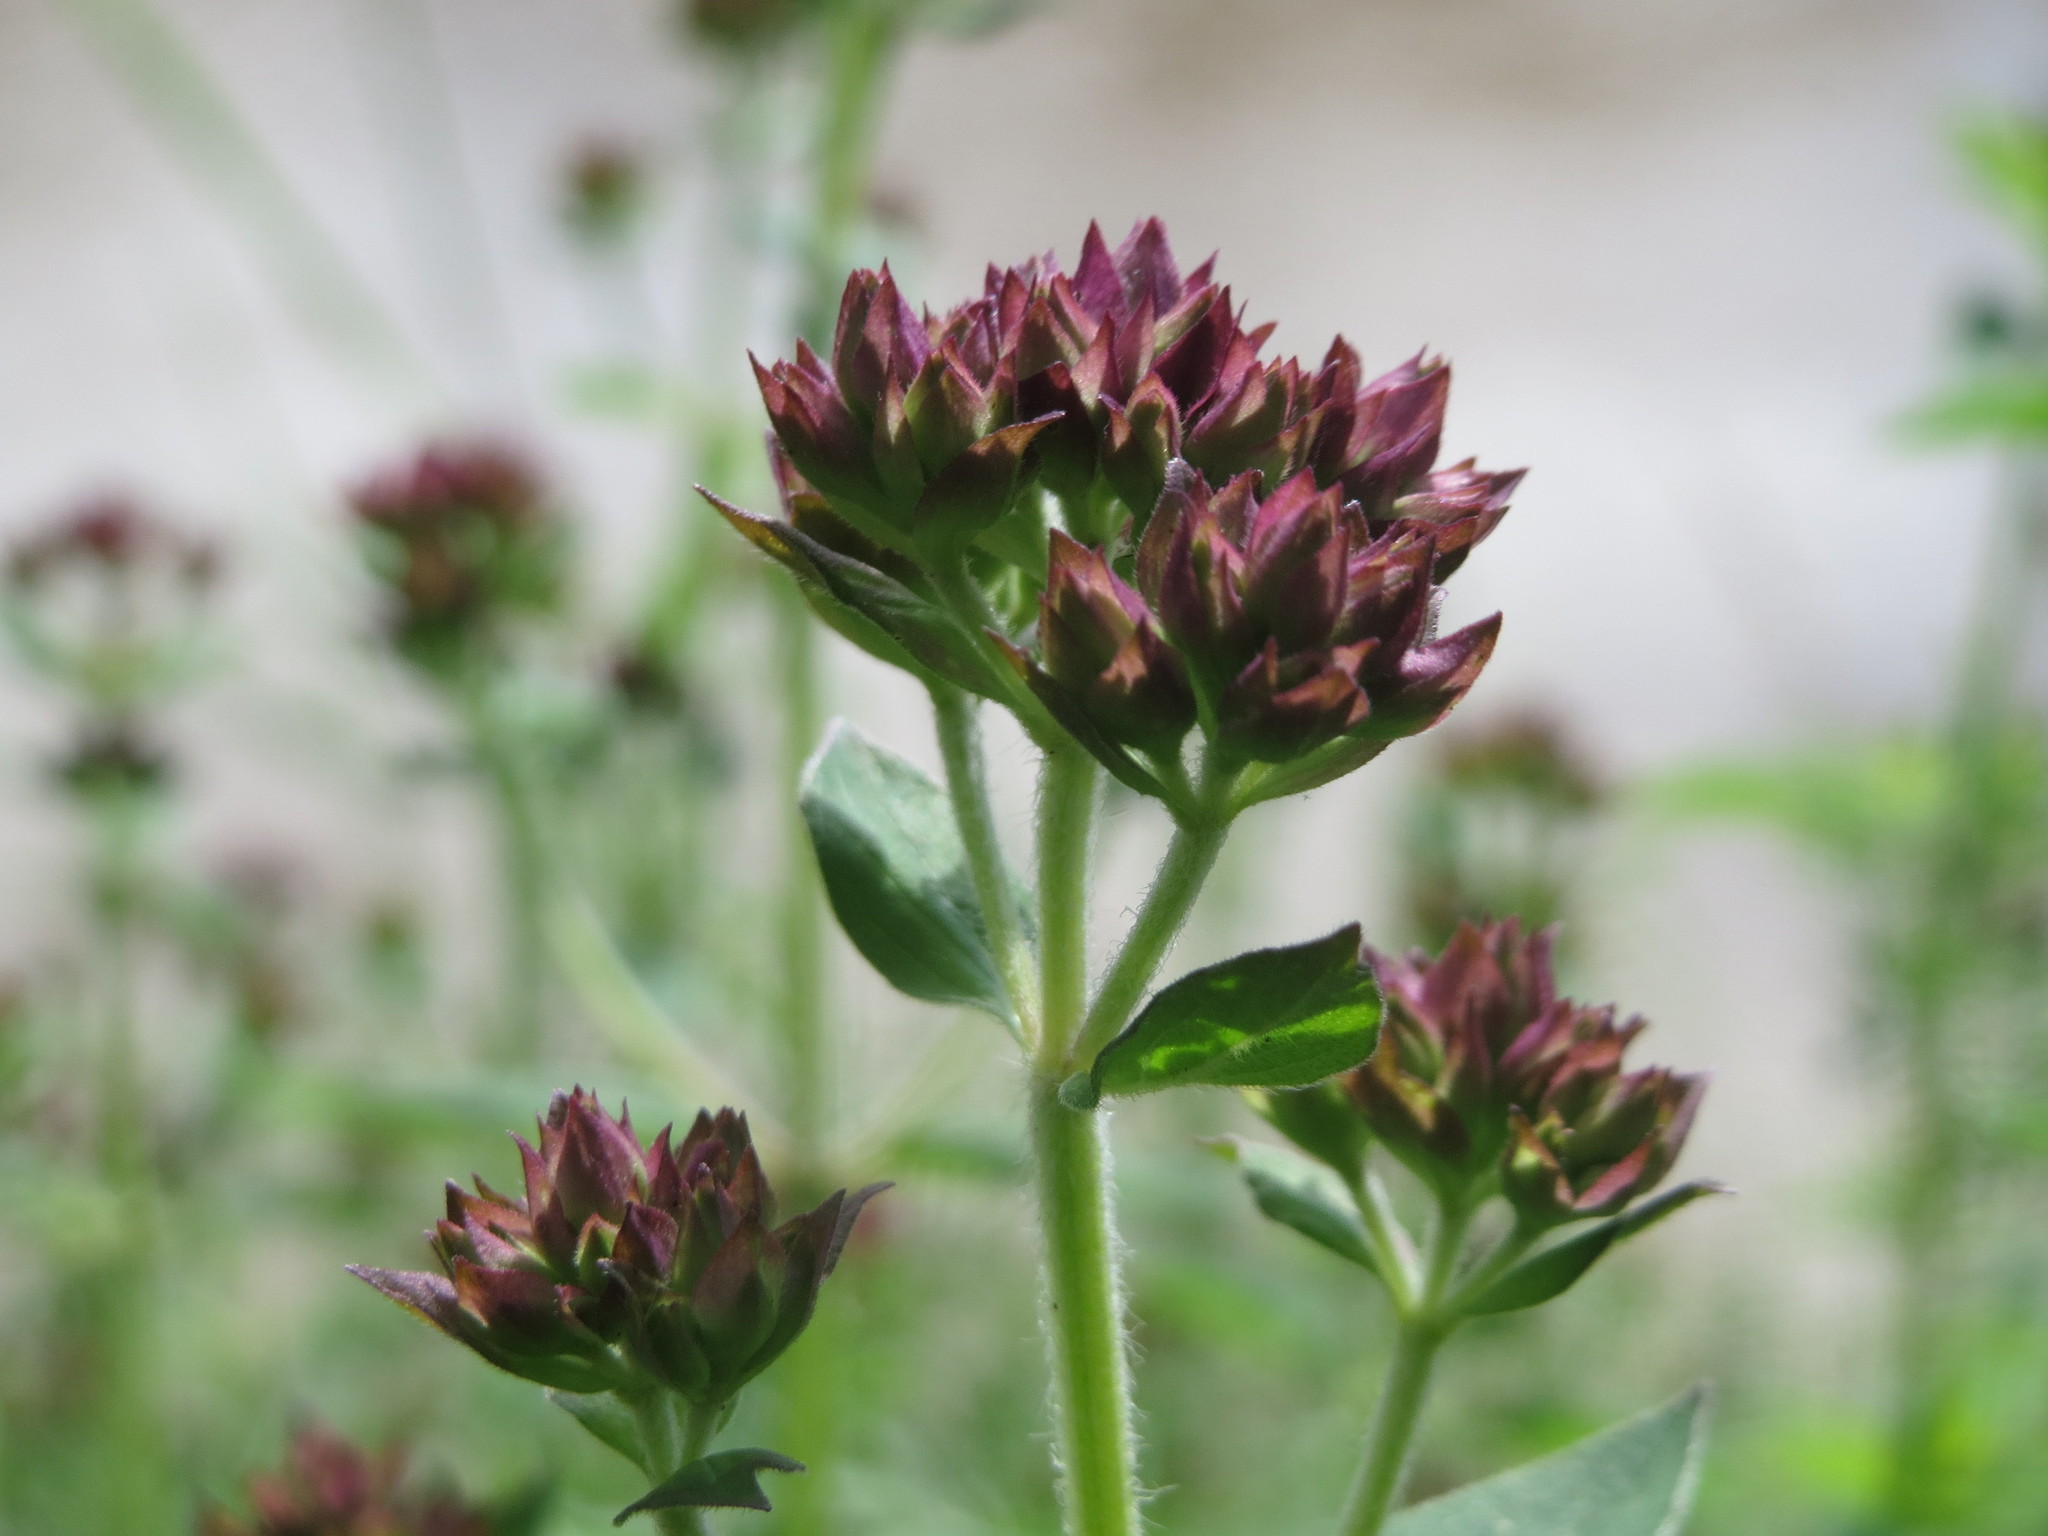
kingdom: Plantae
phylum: Tracheophyta
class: Magnoliopsida
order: Lamiales
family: Lamiaceae
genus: Origanum
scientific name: Origanum vulgare
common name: Wild marjoram
